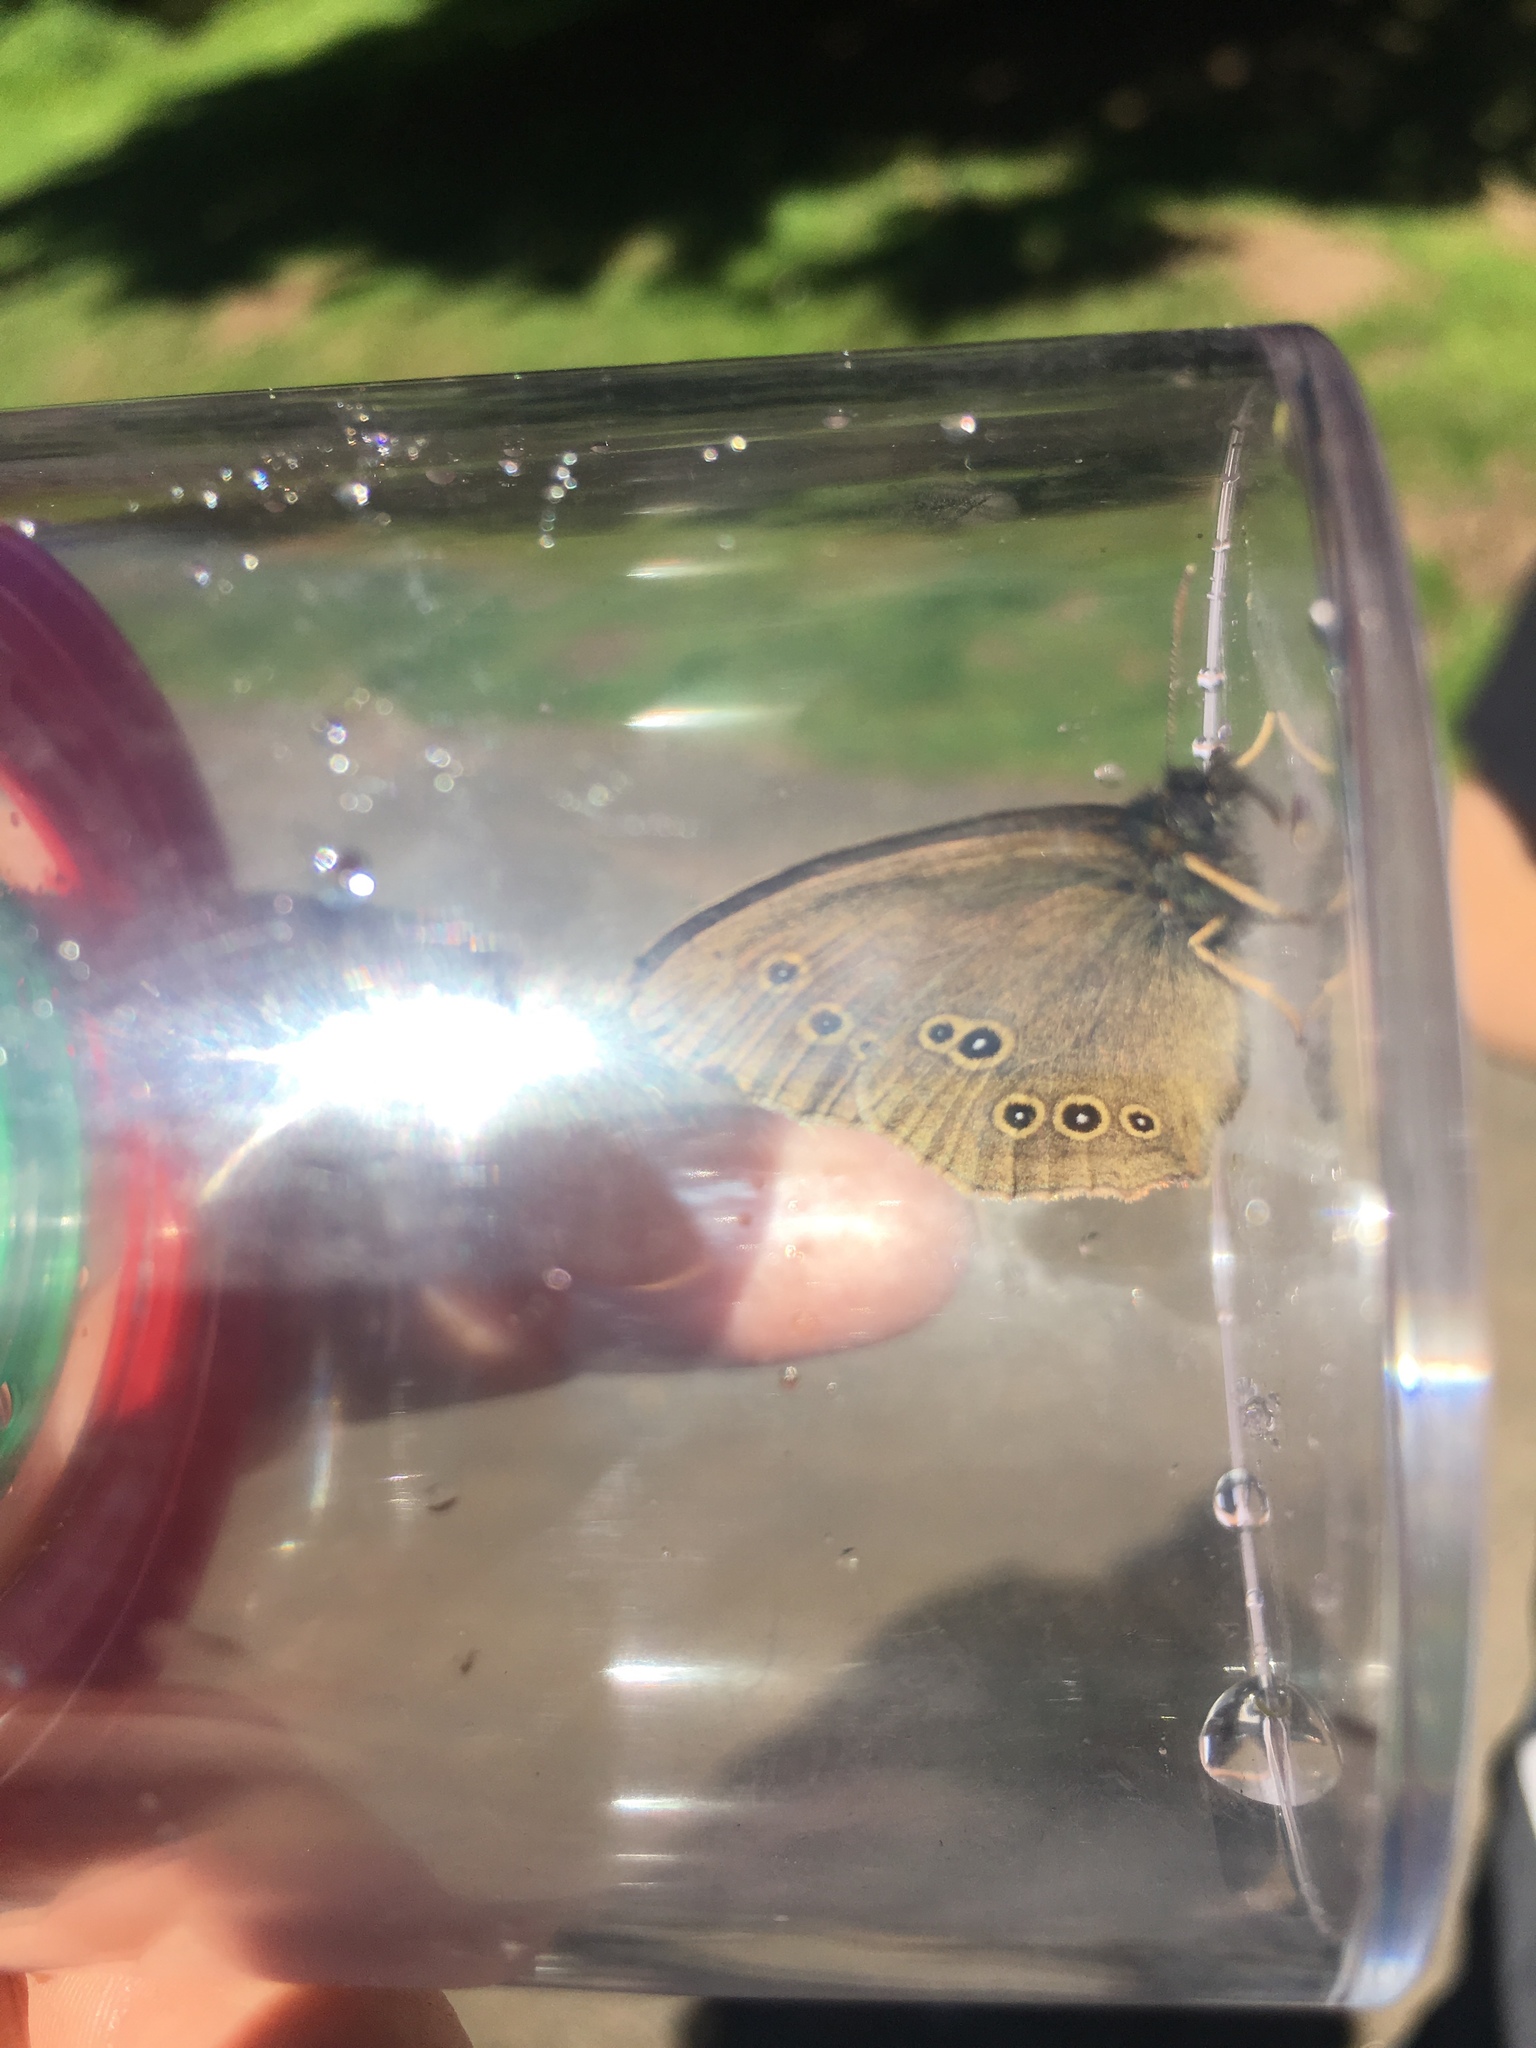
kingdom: Animalia
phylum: Arthropoda
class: Insecta
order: Lepidoptera
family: Nymphalidae
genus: Aphantopus
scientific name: Aphantopus hyperantus
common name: Ringlet
